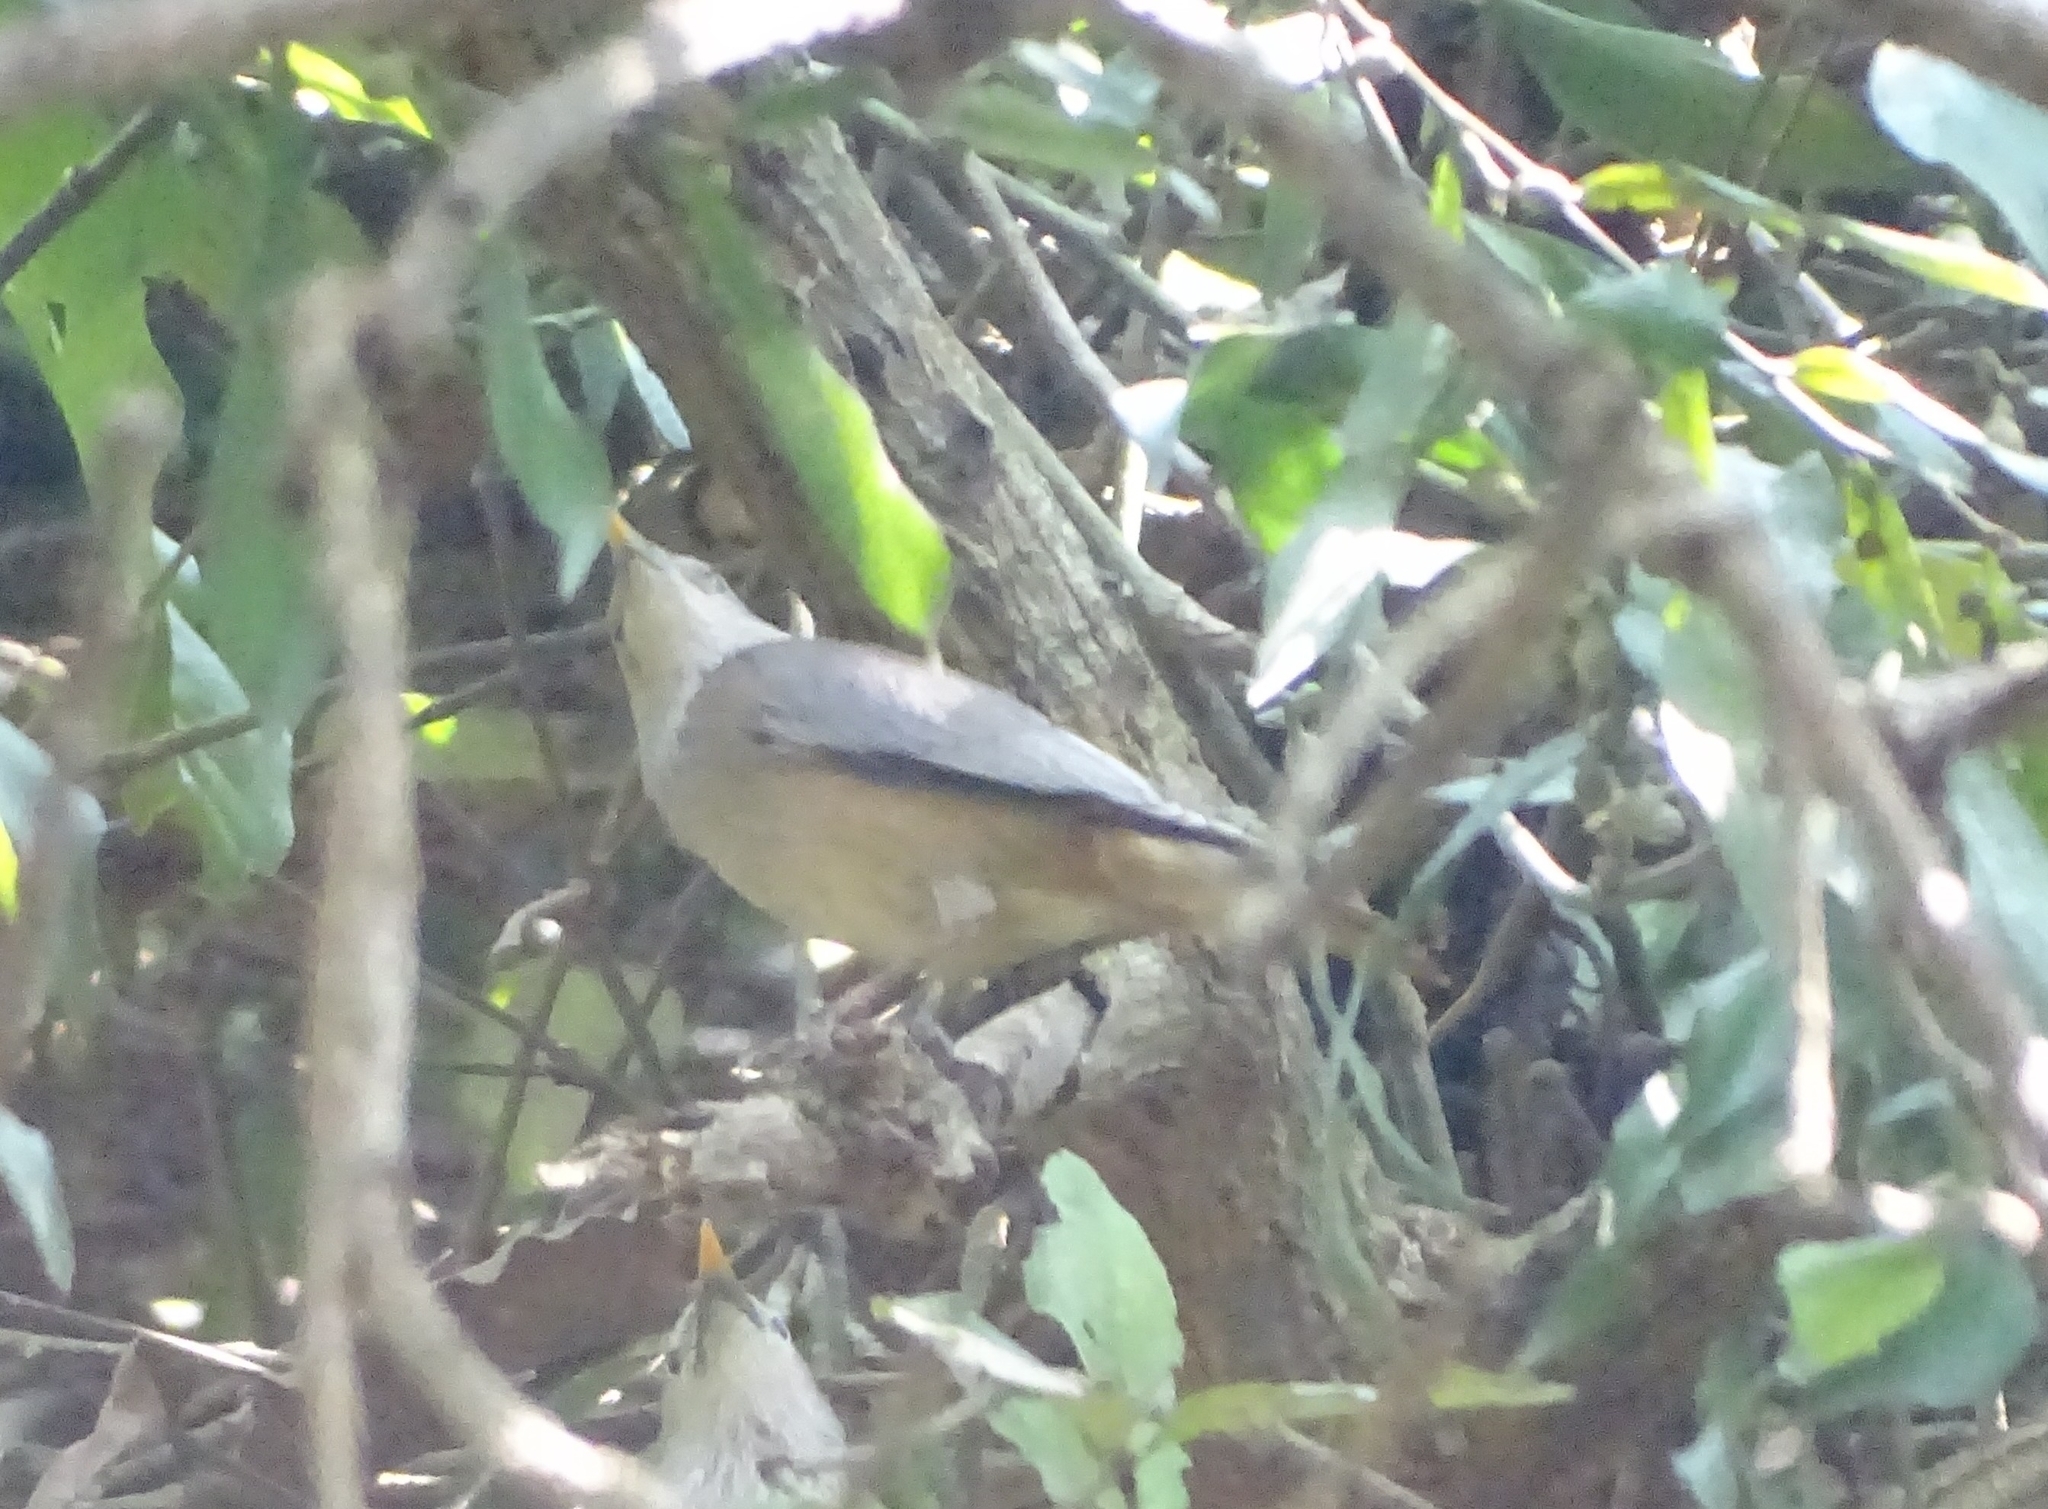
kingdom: Animalia
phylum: Chordata
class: Aves
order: Passeriformes
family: Sturnidae
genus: Sturnia
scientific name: Sturnia malabarica
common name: Chestnut-tailed starling
